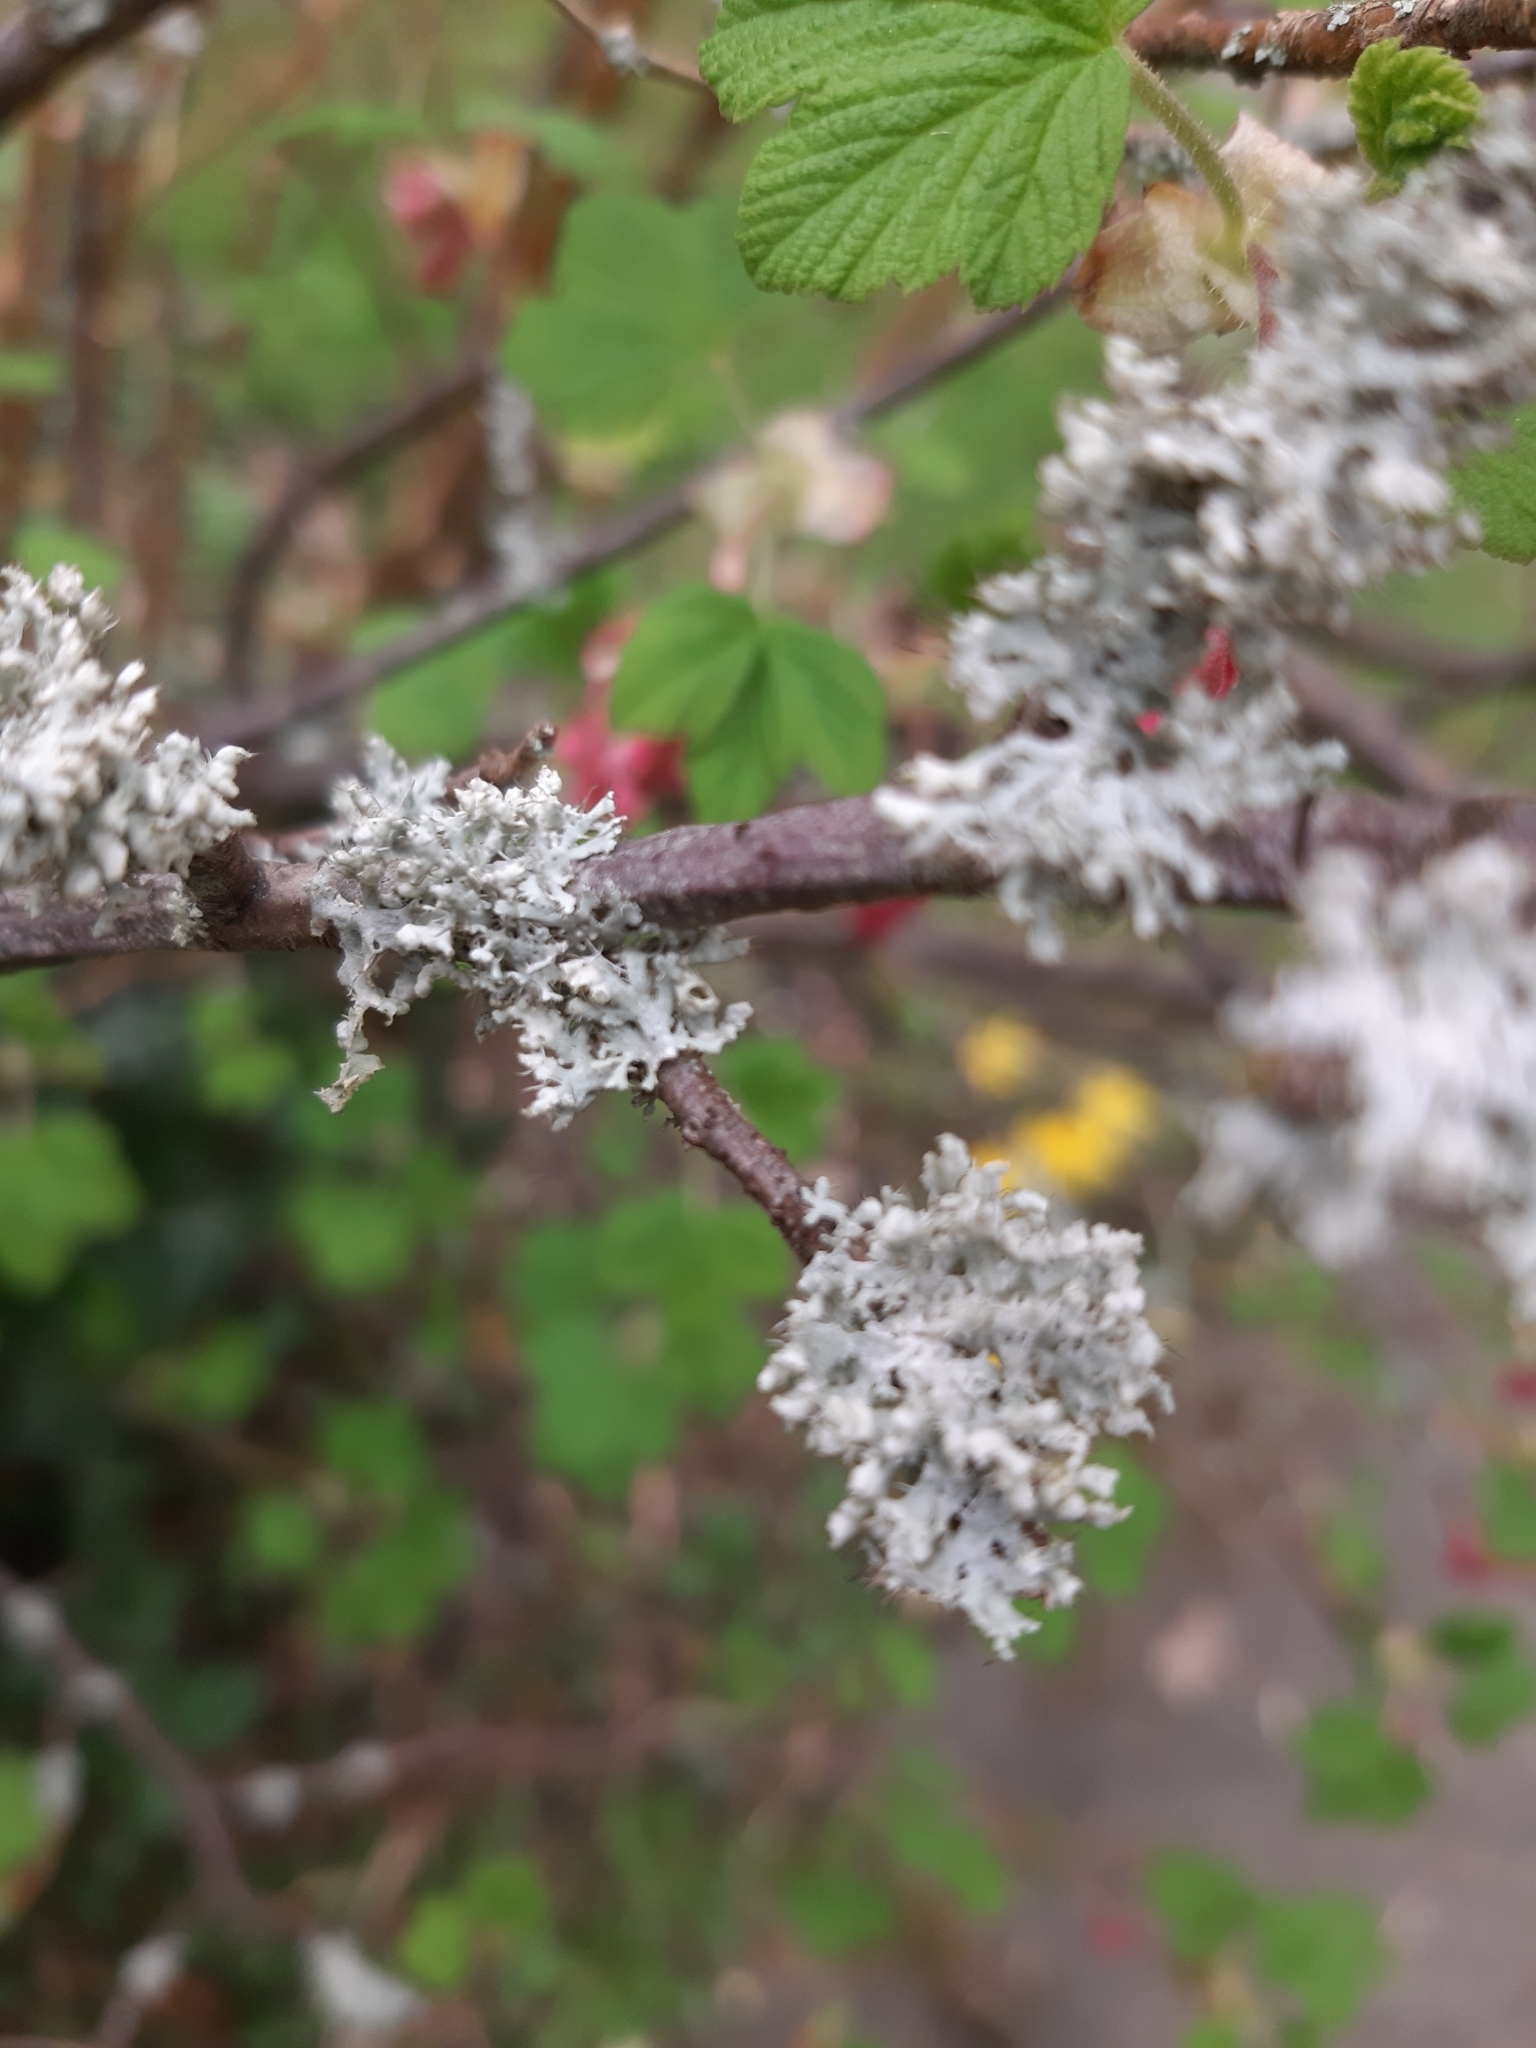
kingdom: Fungi
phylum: Ascomycota
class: Lecanoromycetes
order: Caliciales
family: Physciaceae
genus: Physcia
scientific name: Physcia adscendens
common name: Hooded rosette lichen
